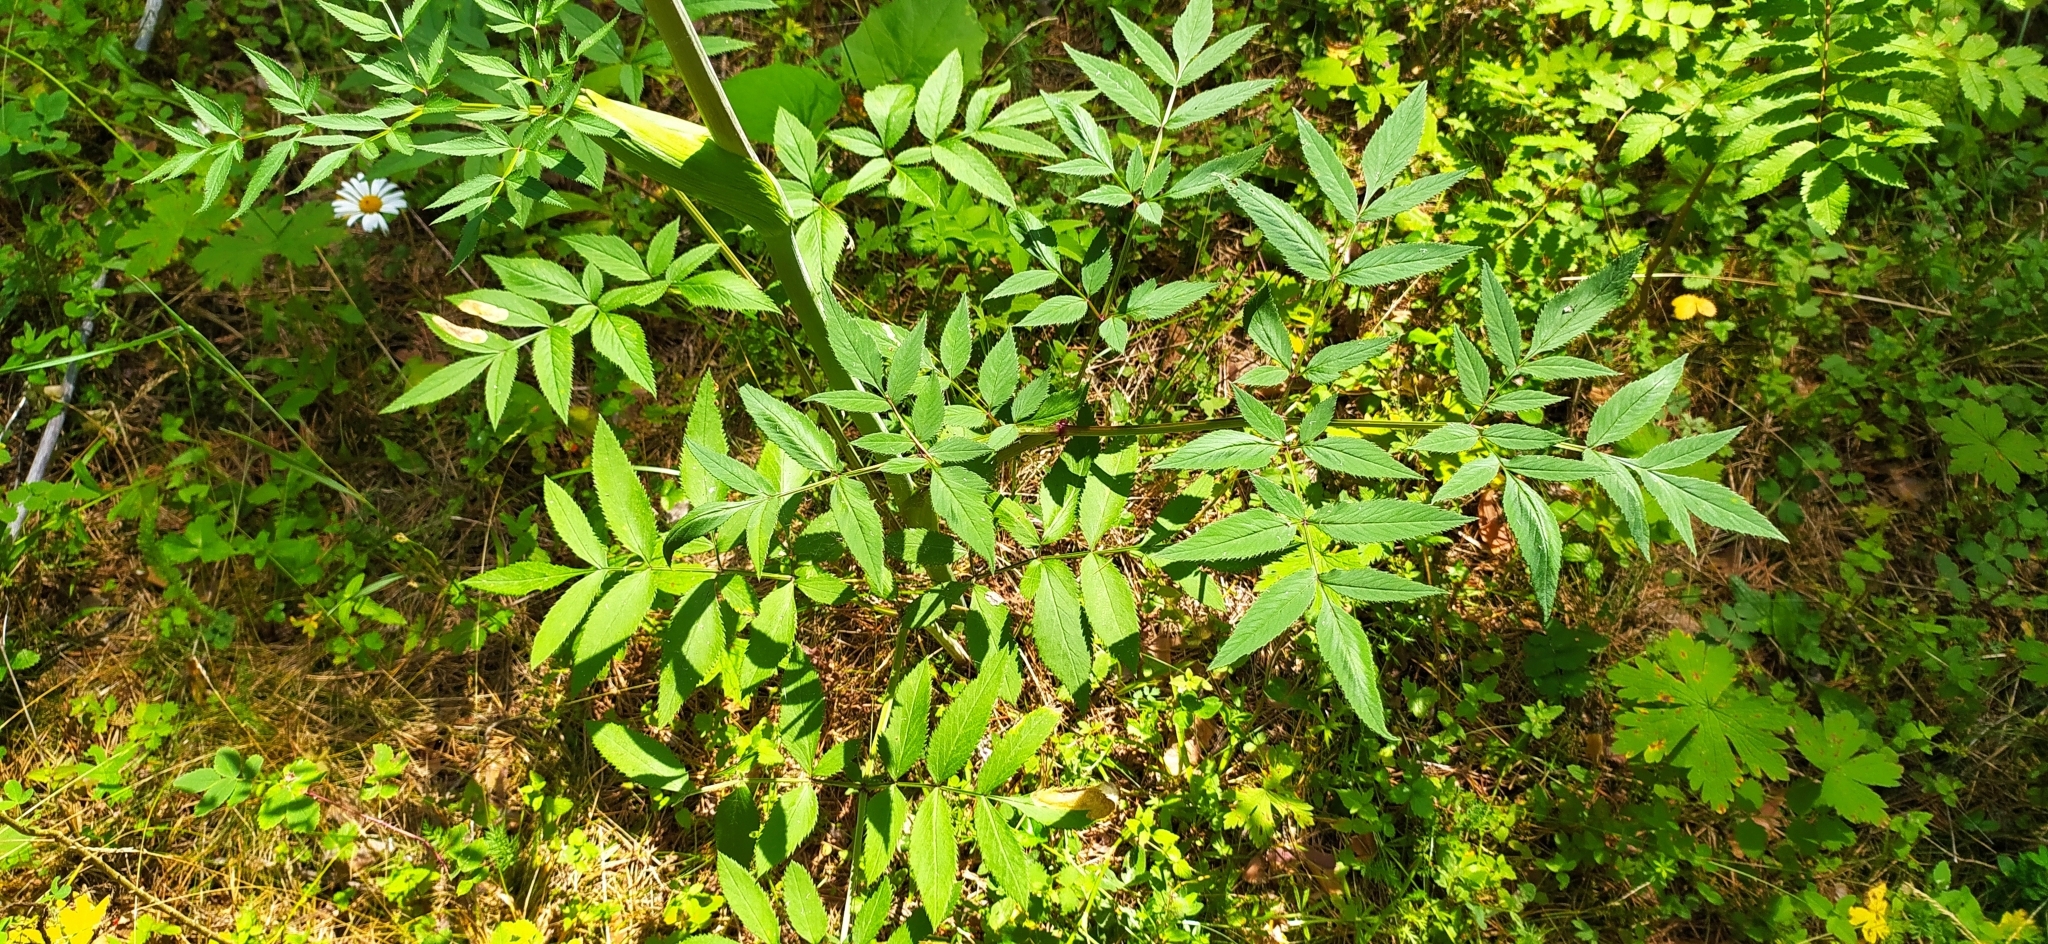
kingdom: Plantae
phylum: Tracheophyta
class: Magnoliopsida
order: Apiales
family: Apiaceae
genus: Angelica
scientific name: Angelica sylvestris
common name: Wild angelica
